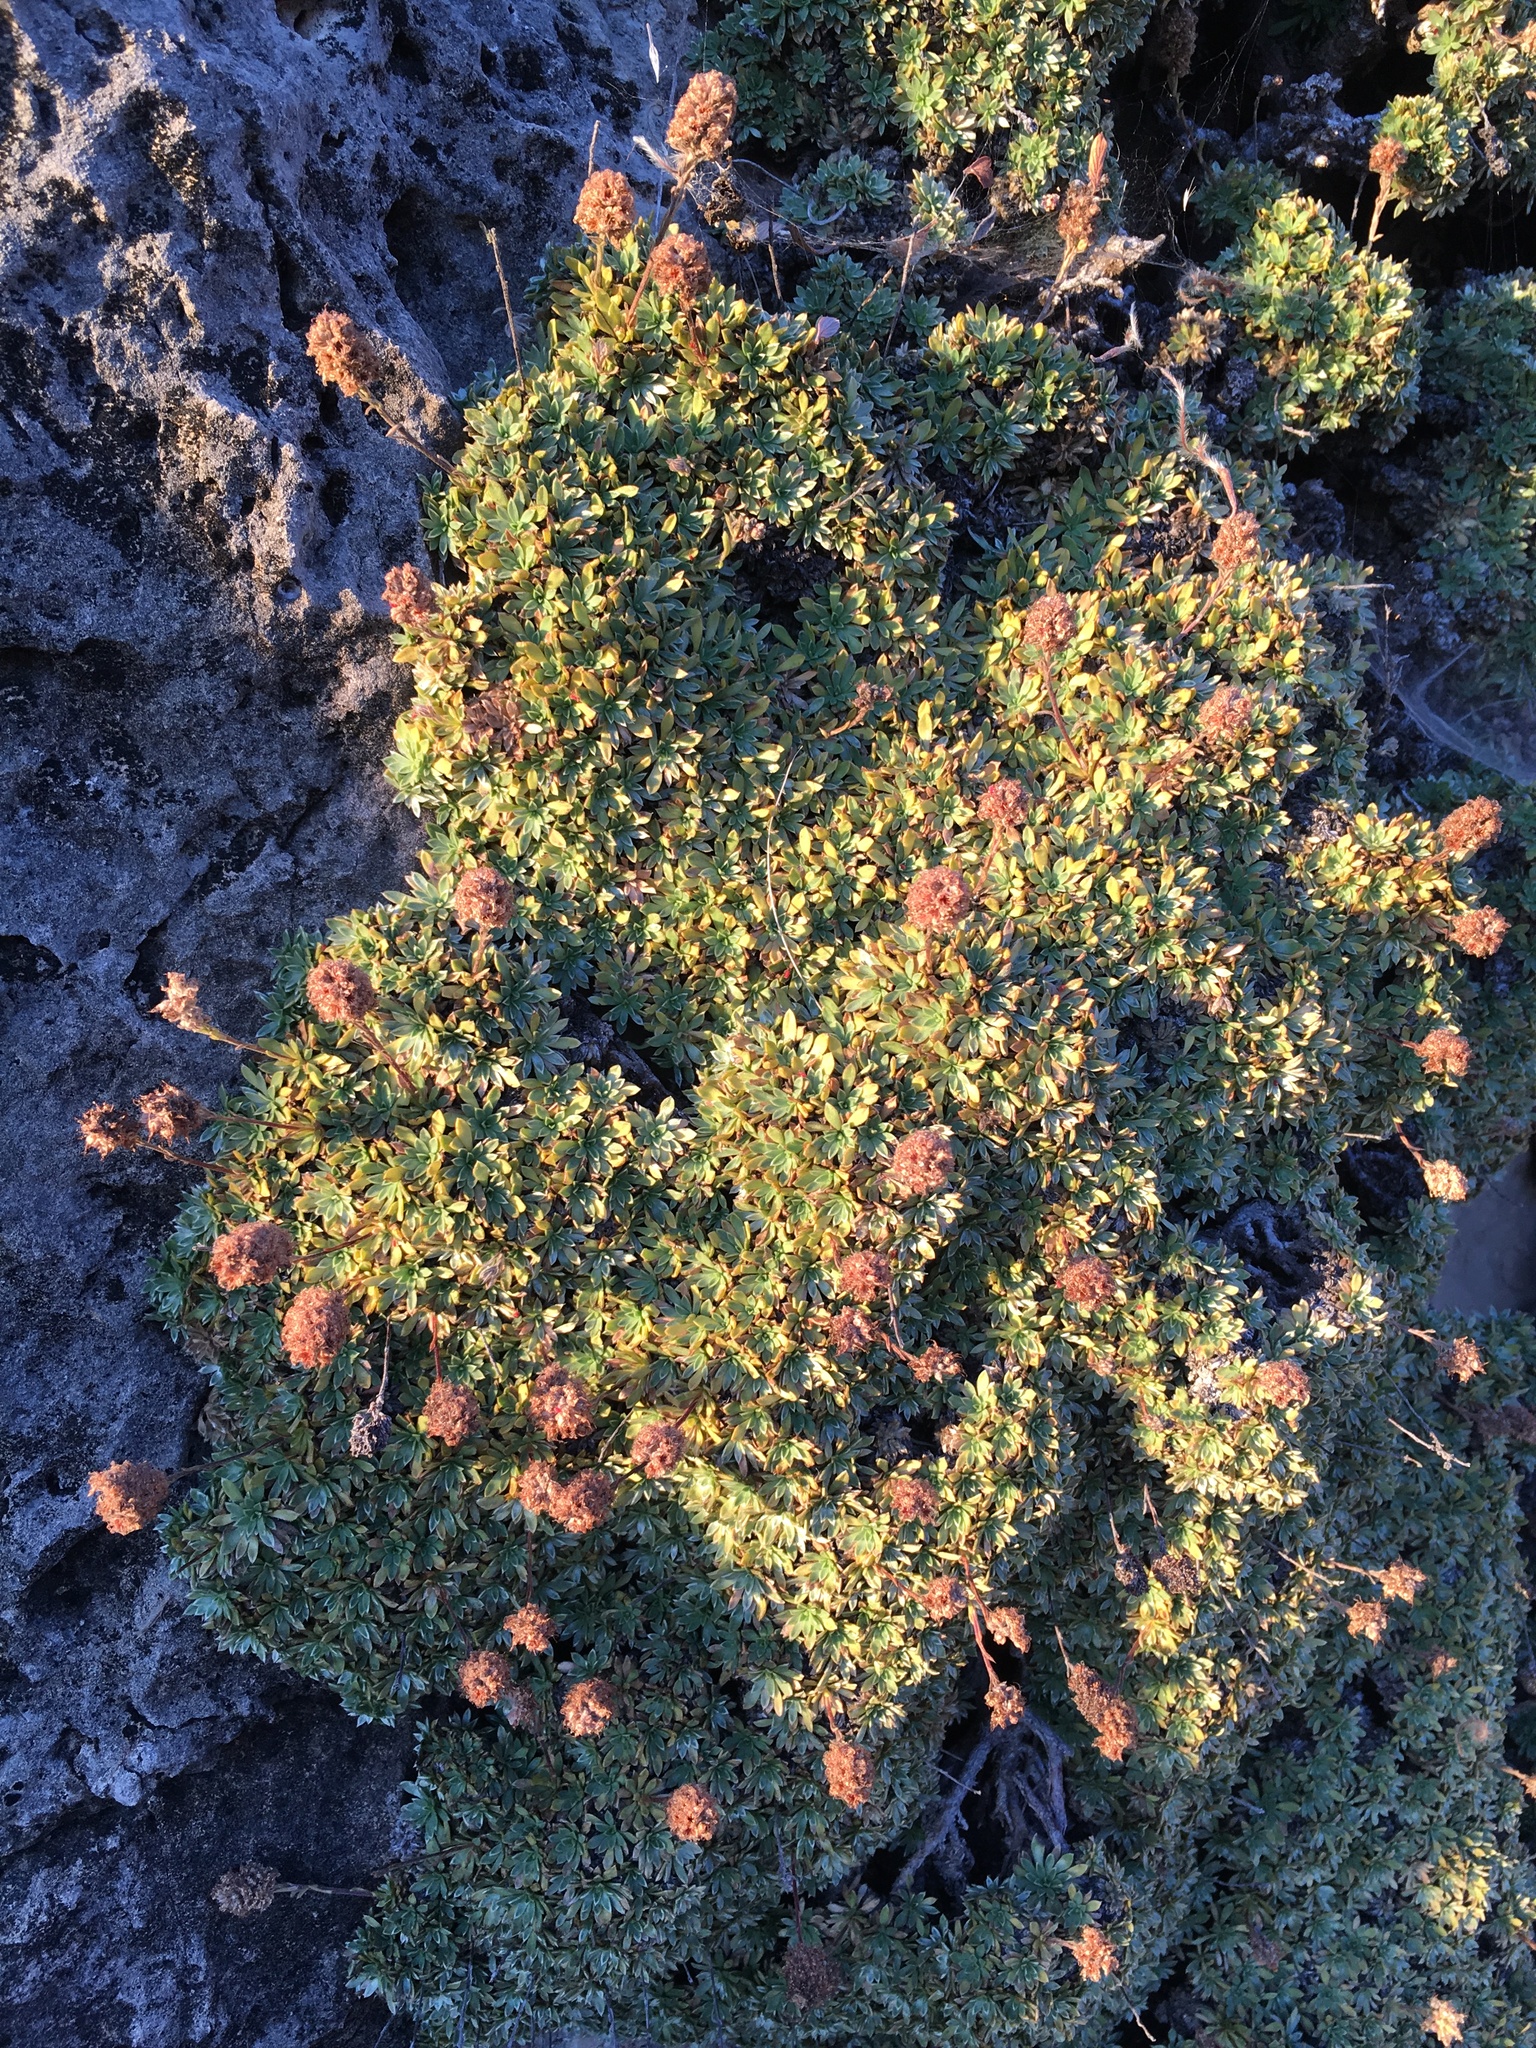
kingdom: Plantae
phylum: Tracheophyta
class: Magnoliopsida
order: Rosales
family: Rosaceae
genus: Petrophytum
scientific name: Petrophytum caespitosum
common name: Mat rockspirea
